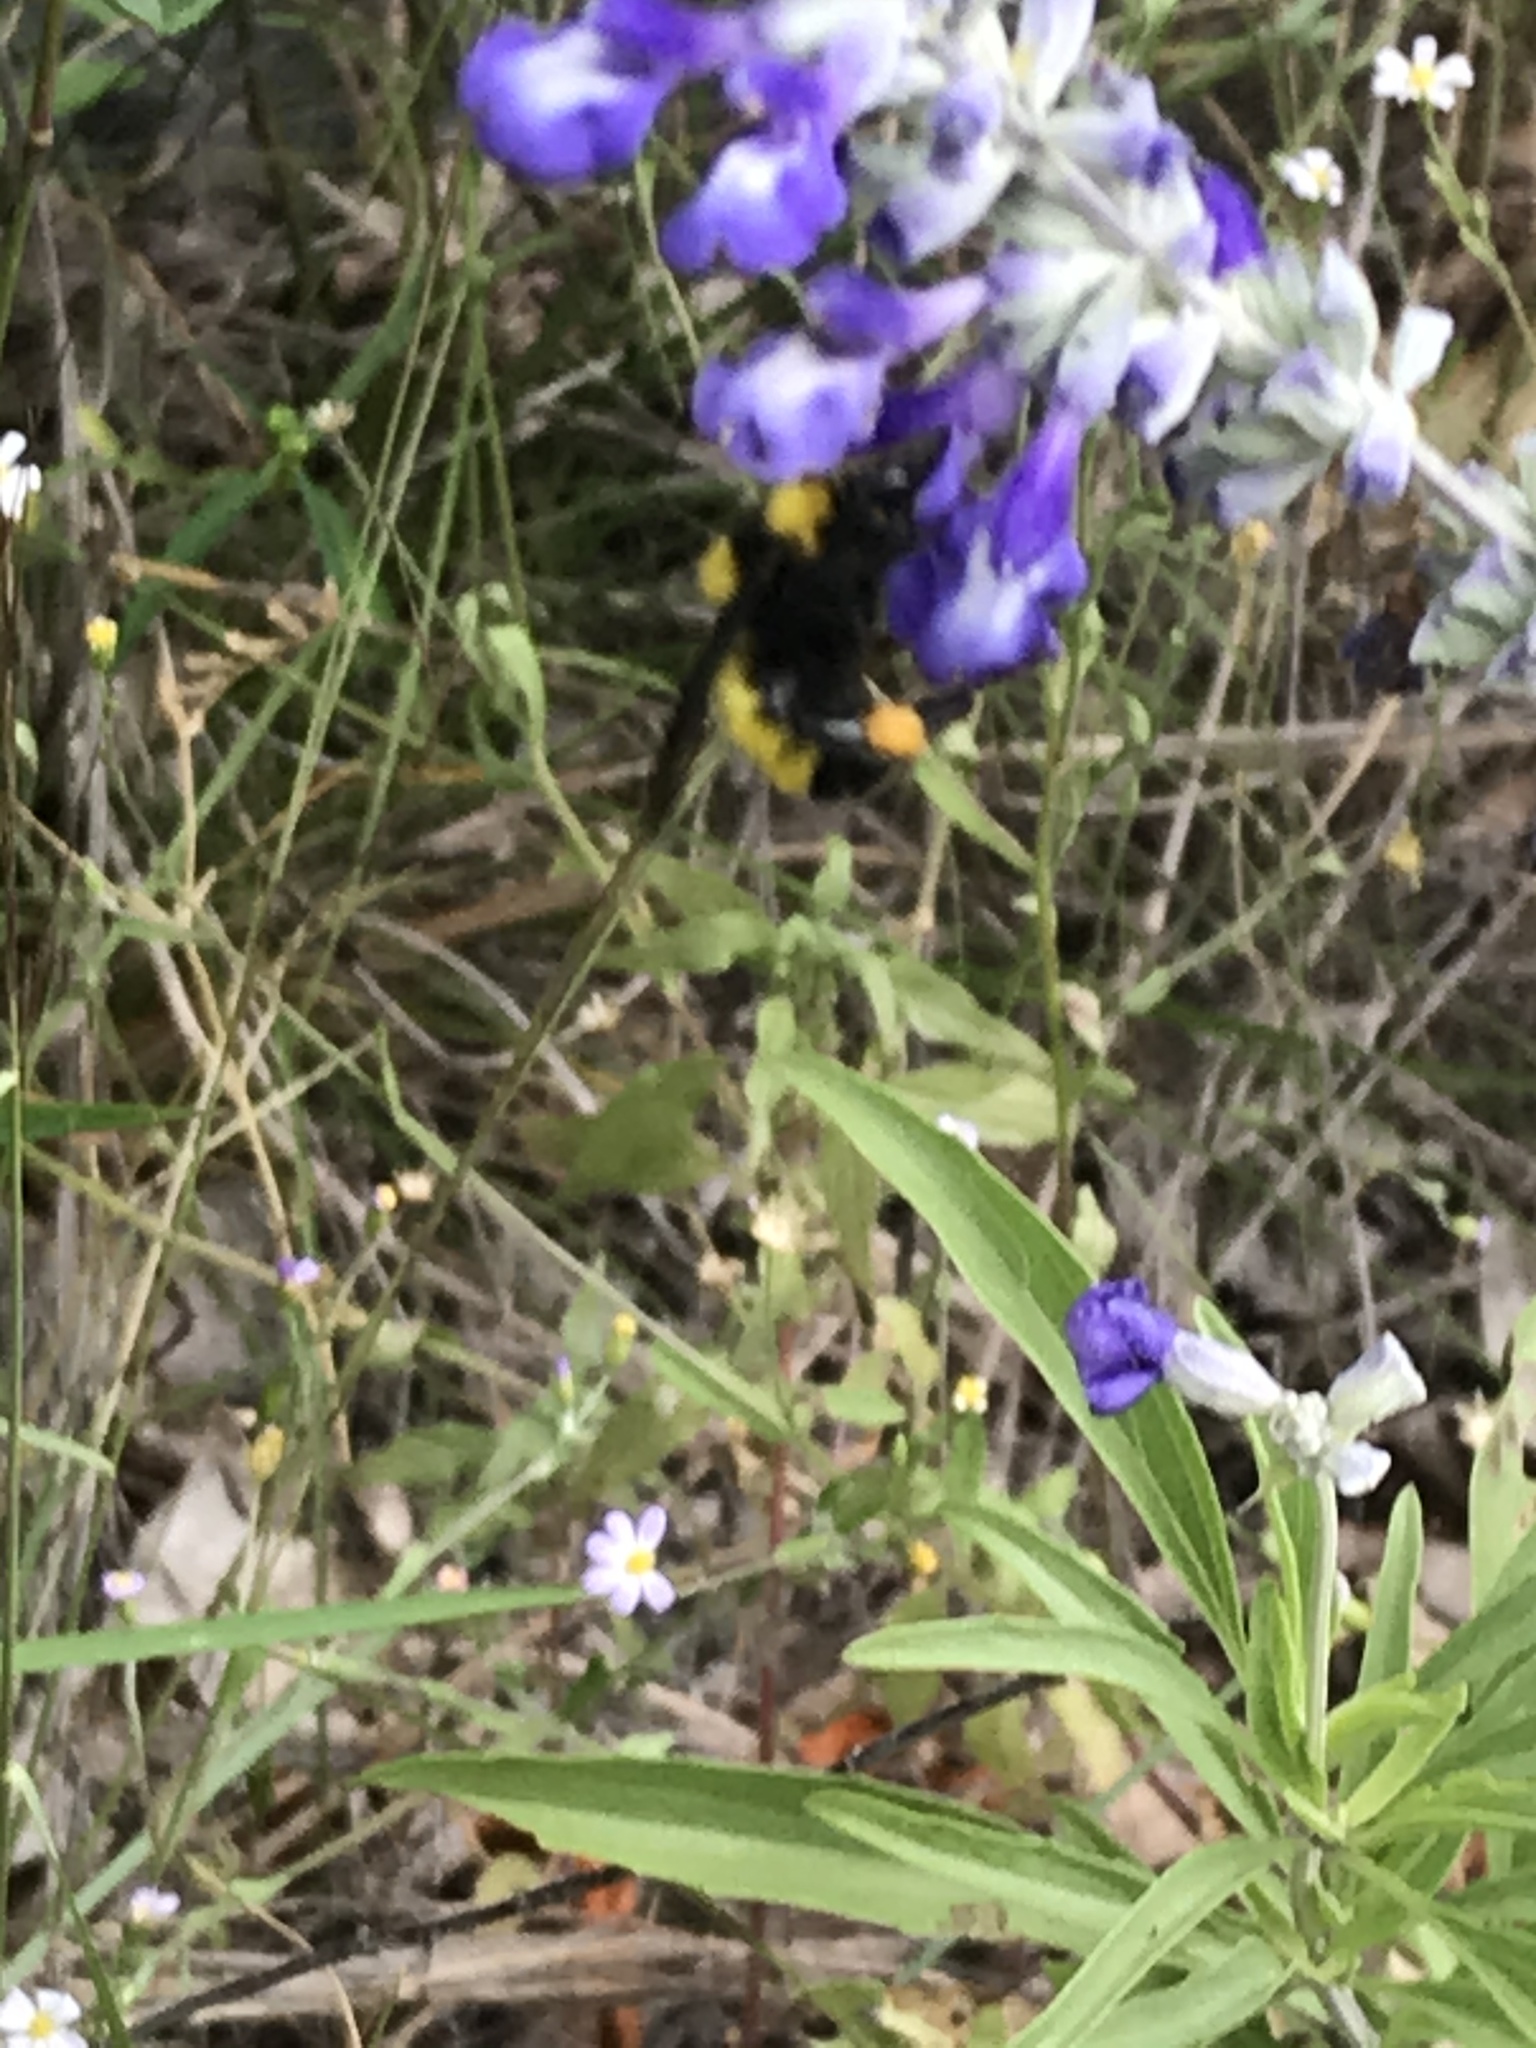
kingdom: Animalia
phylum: Arthropoda
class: Insecta
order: Hymenoptera
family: Apidae
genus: Bombus
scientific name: Bombus sonorus
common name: Sonoran bumble bee
